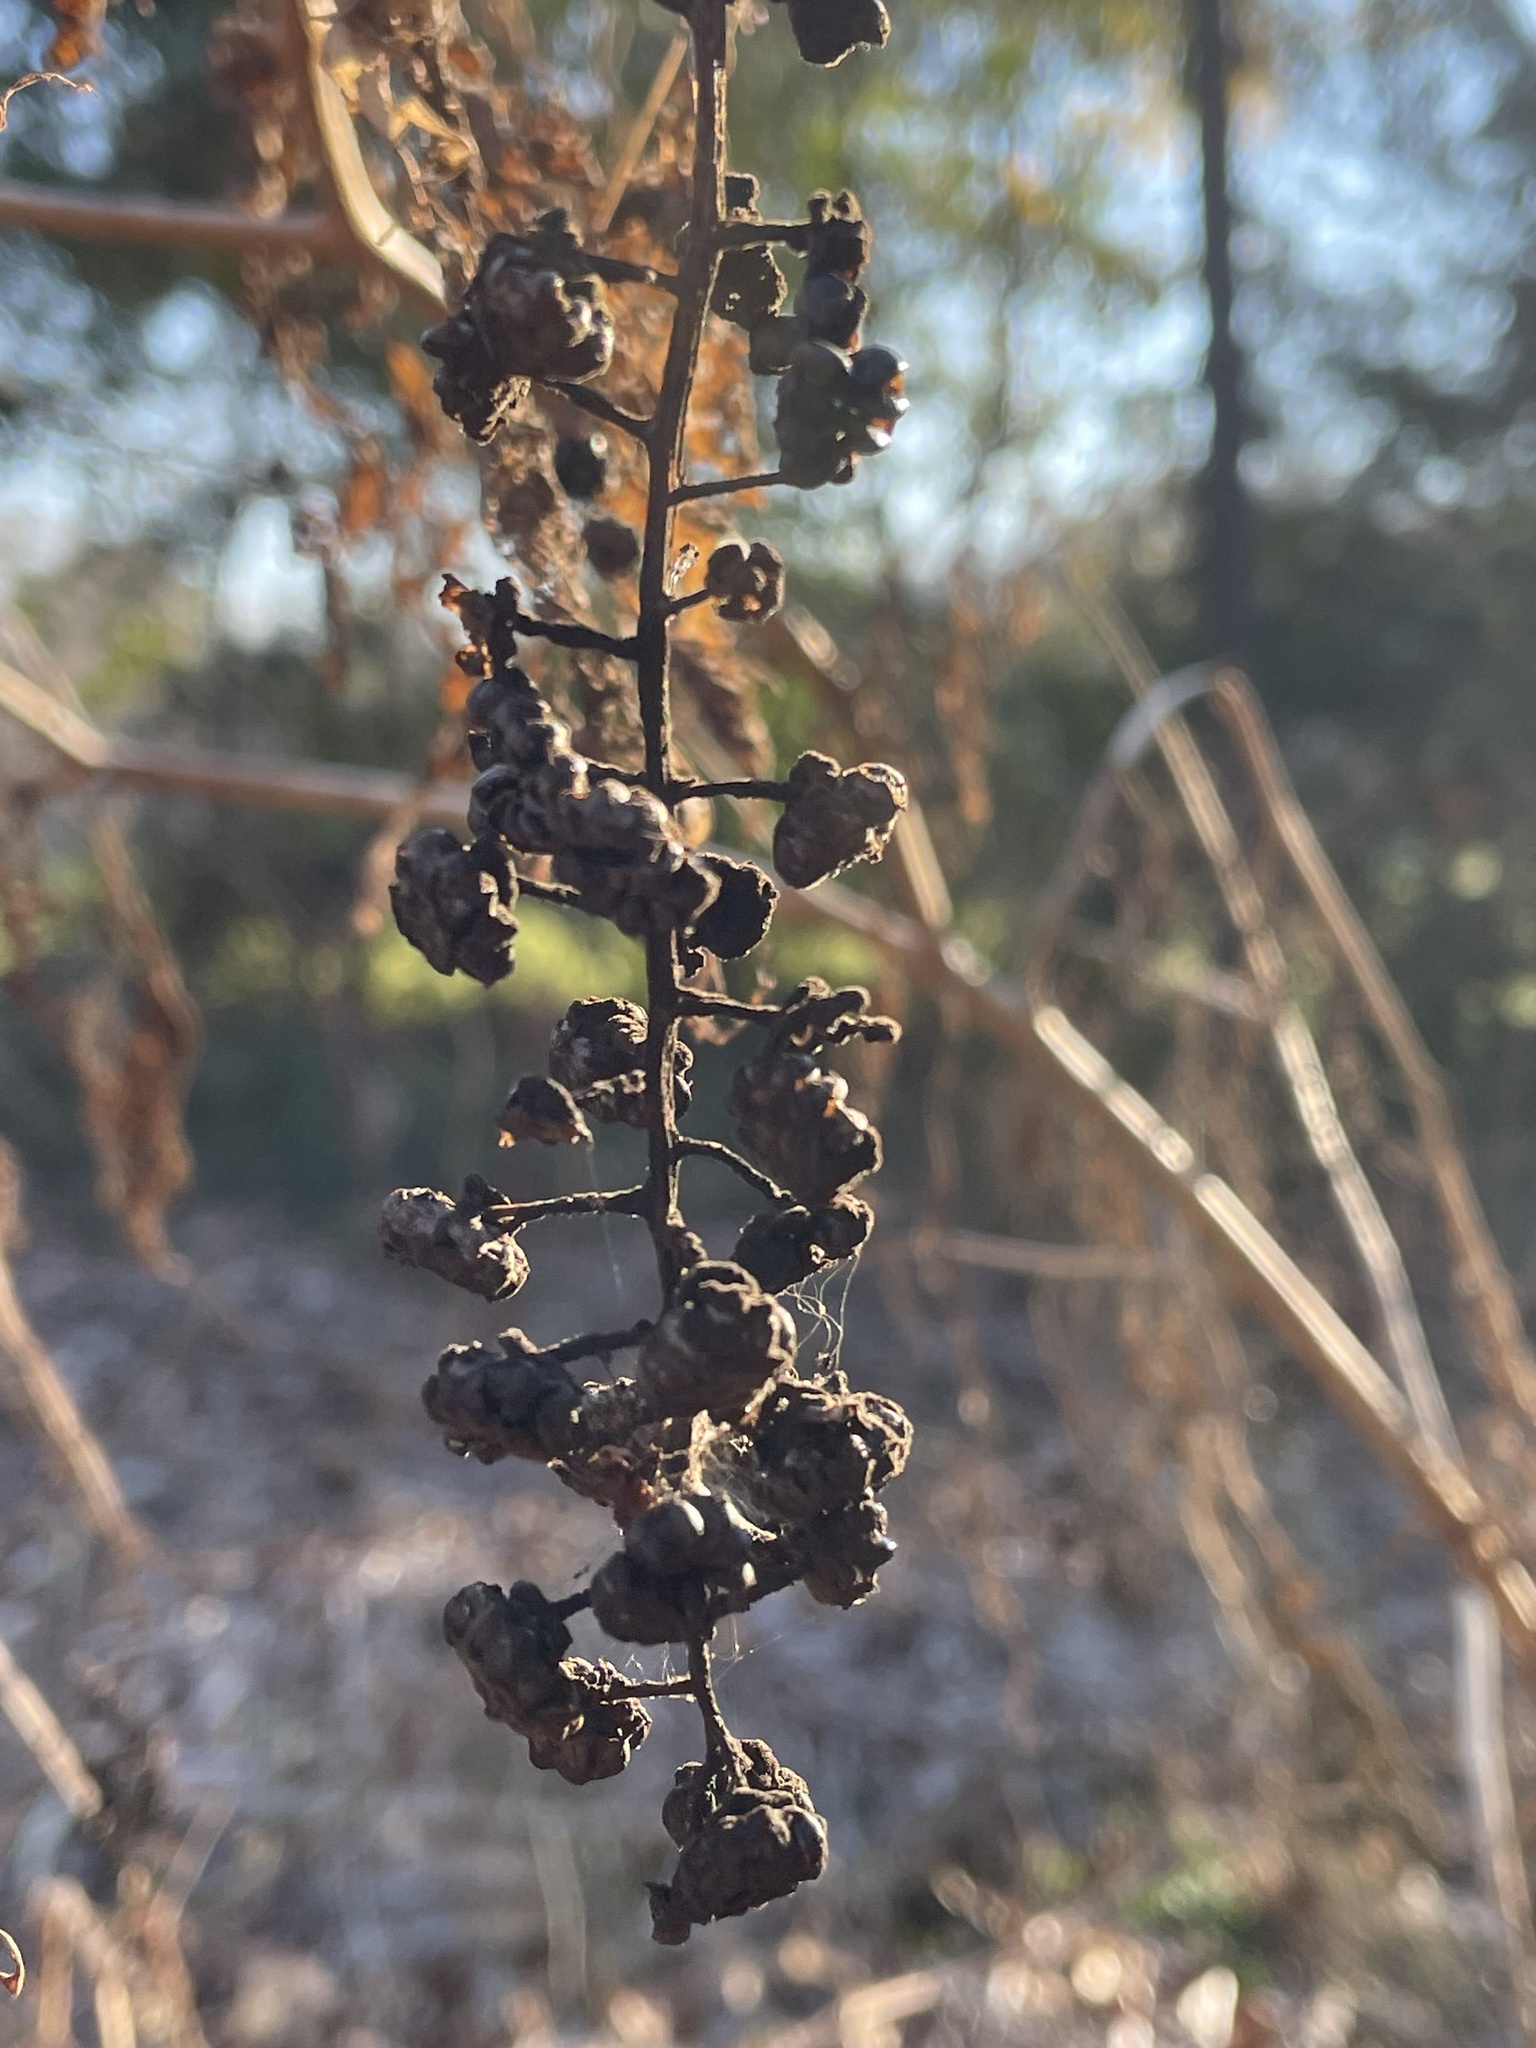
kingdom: Plantae
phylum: Tracheophyta
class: Magnoliopsida
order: Caryophyllales
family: Phytolaccaceae
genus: Phytolacca
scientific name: Phytolacca americana
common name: American pokeweed
